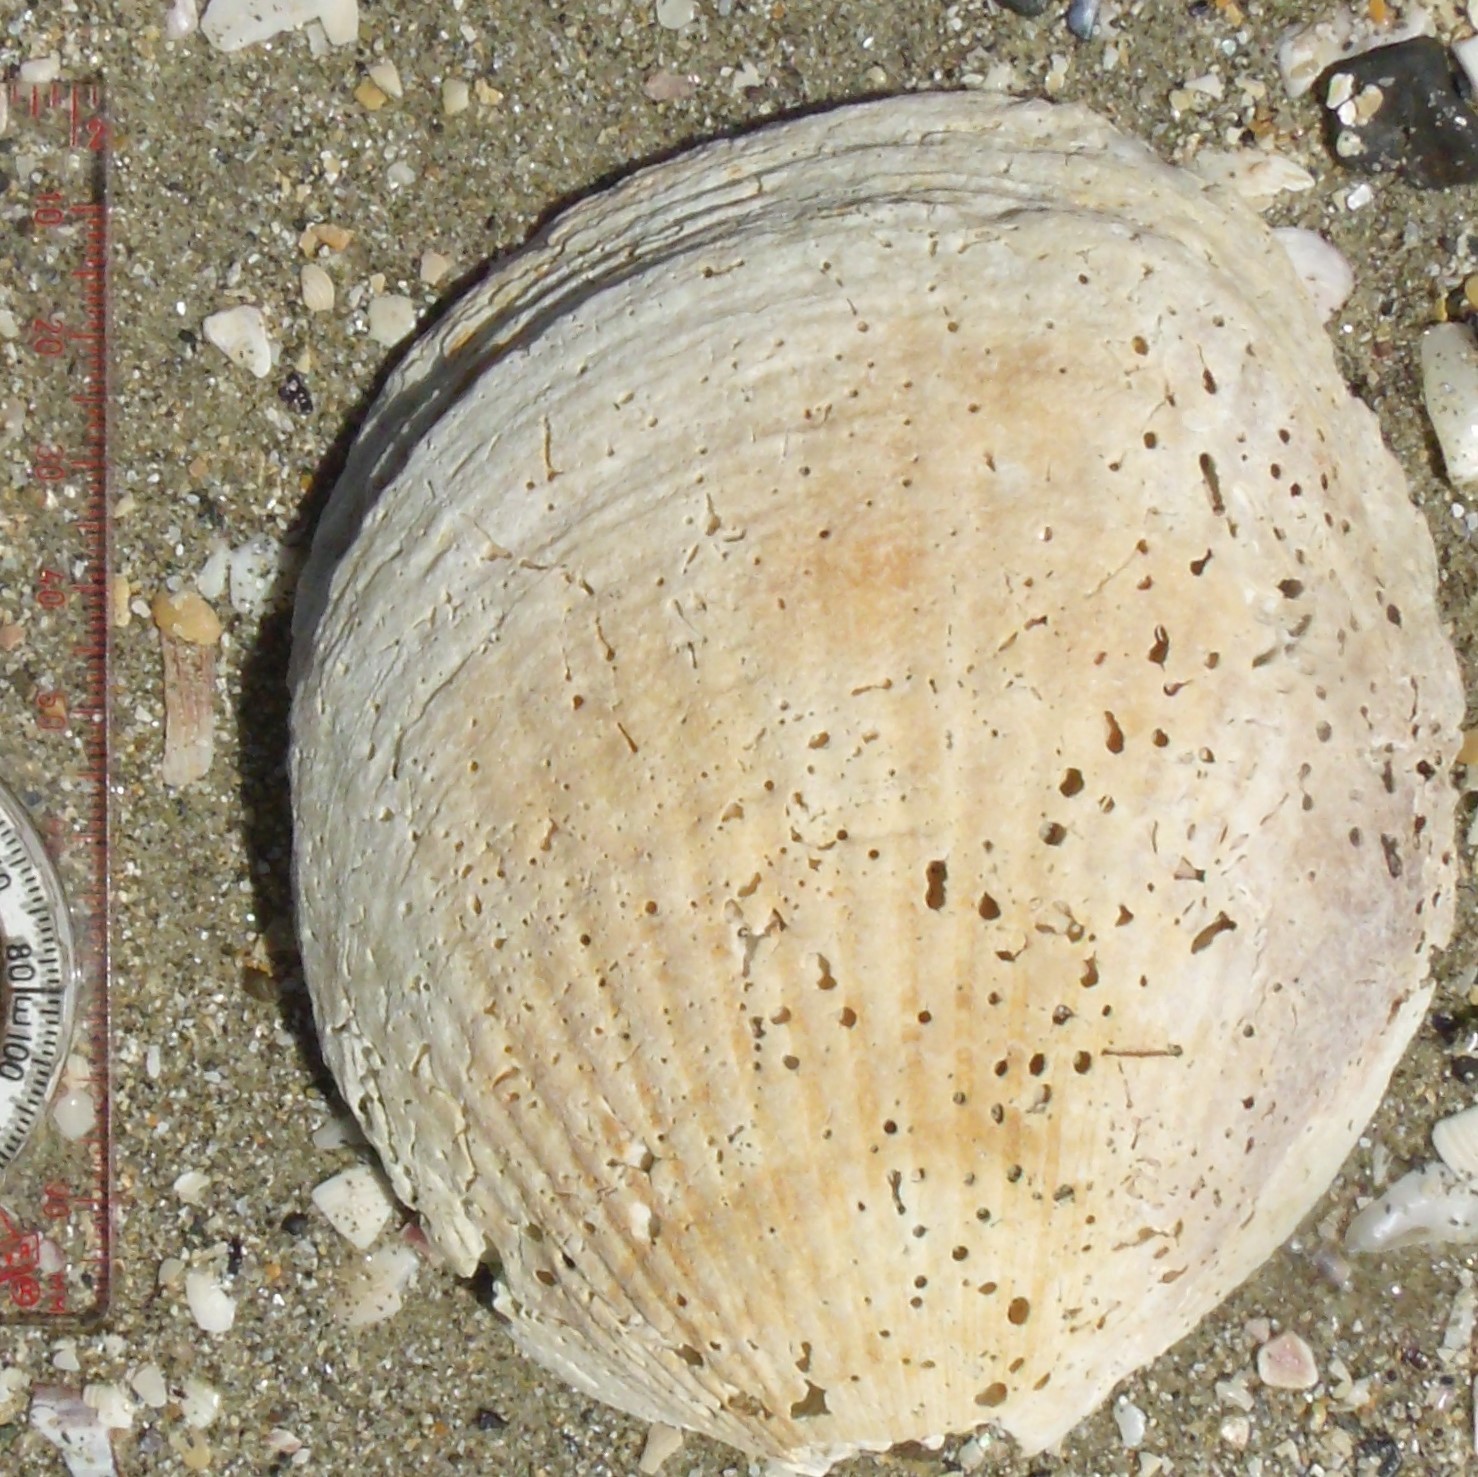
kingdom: Animalia
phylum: Mollusca
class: Bivalvia
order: Arcida
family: Glycymerididae
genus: Tucetona
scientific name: Tucetona laticostata
